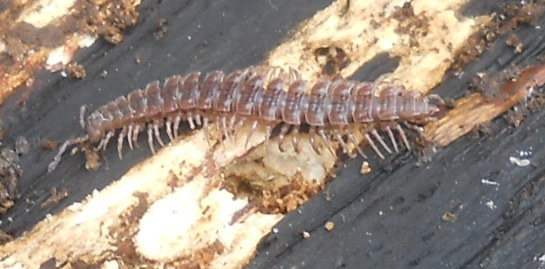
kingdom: Animalia
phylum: Arthropoda
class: Diplopoda
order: Polydesmida
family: Polydesmidae
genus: Polydesmus
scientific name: Polydesmus angustus
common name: Flat millipede
